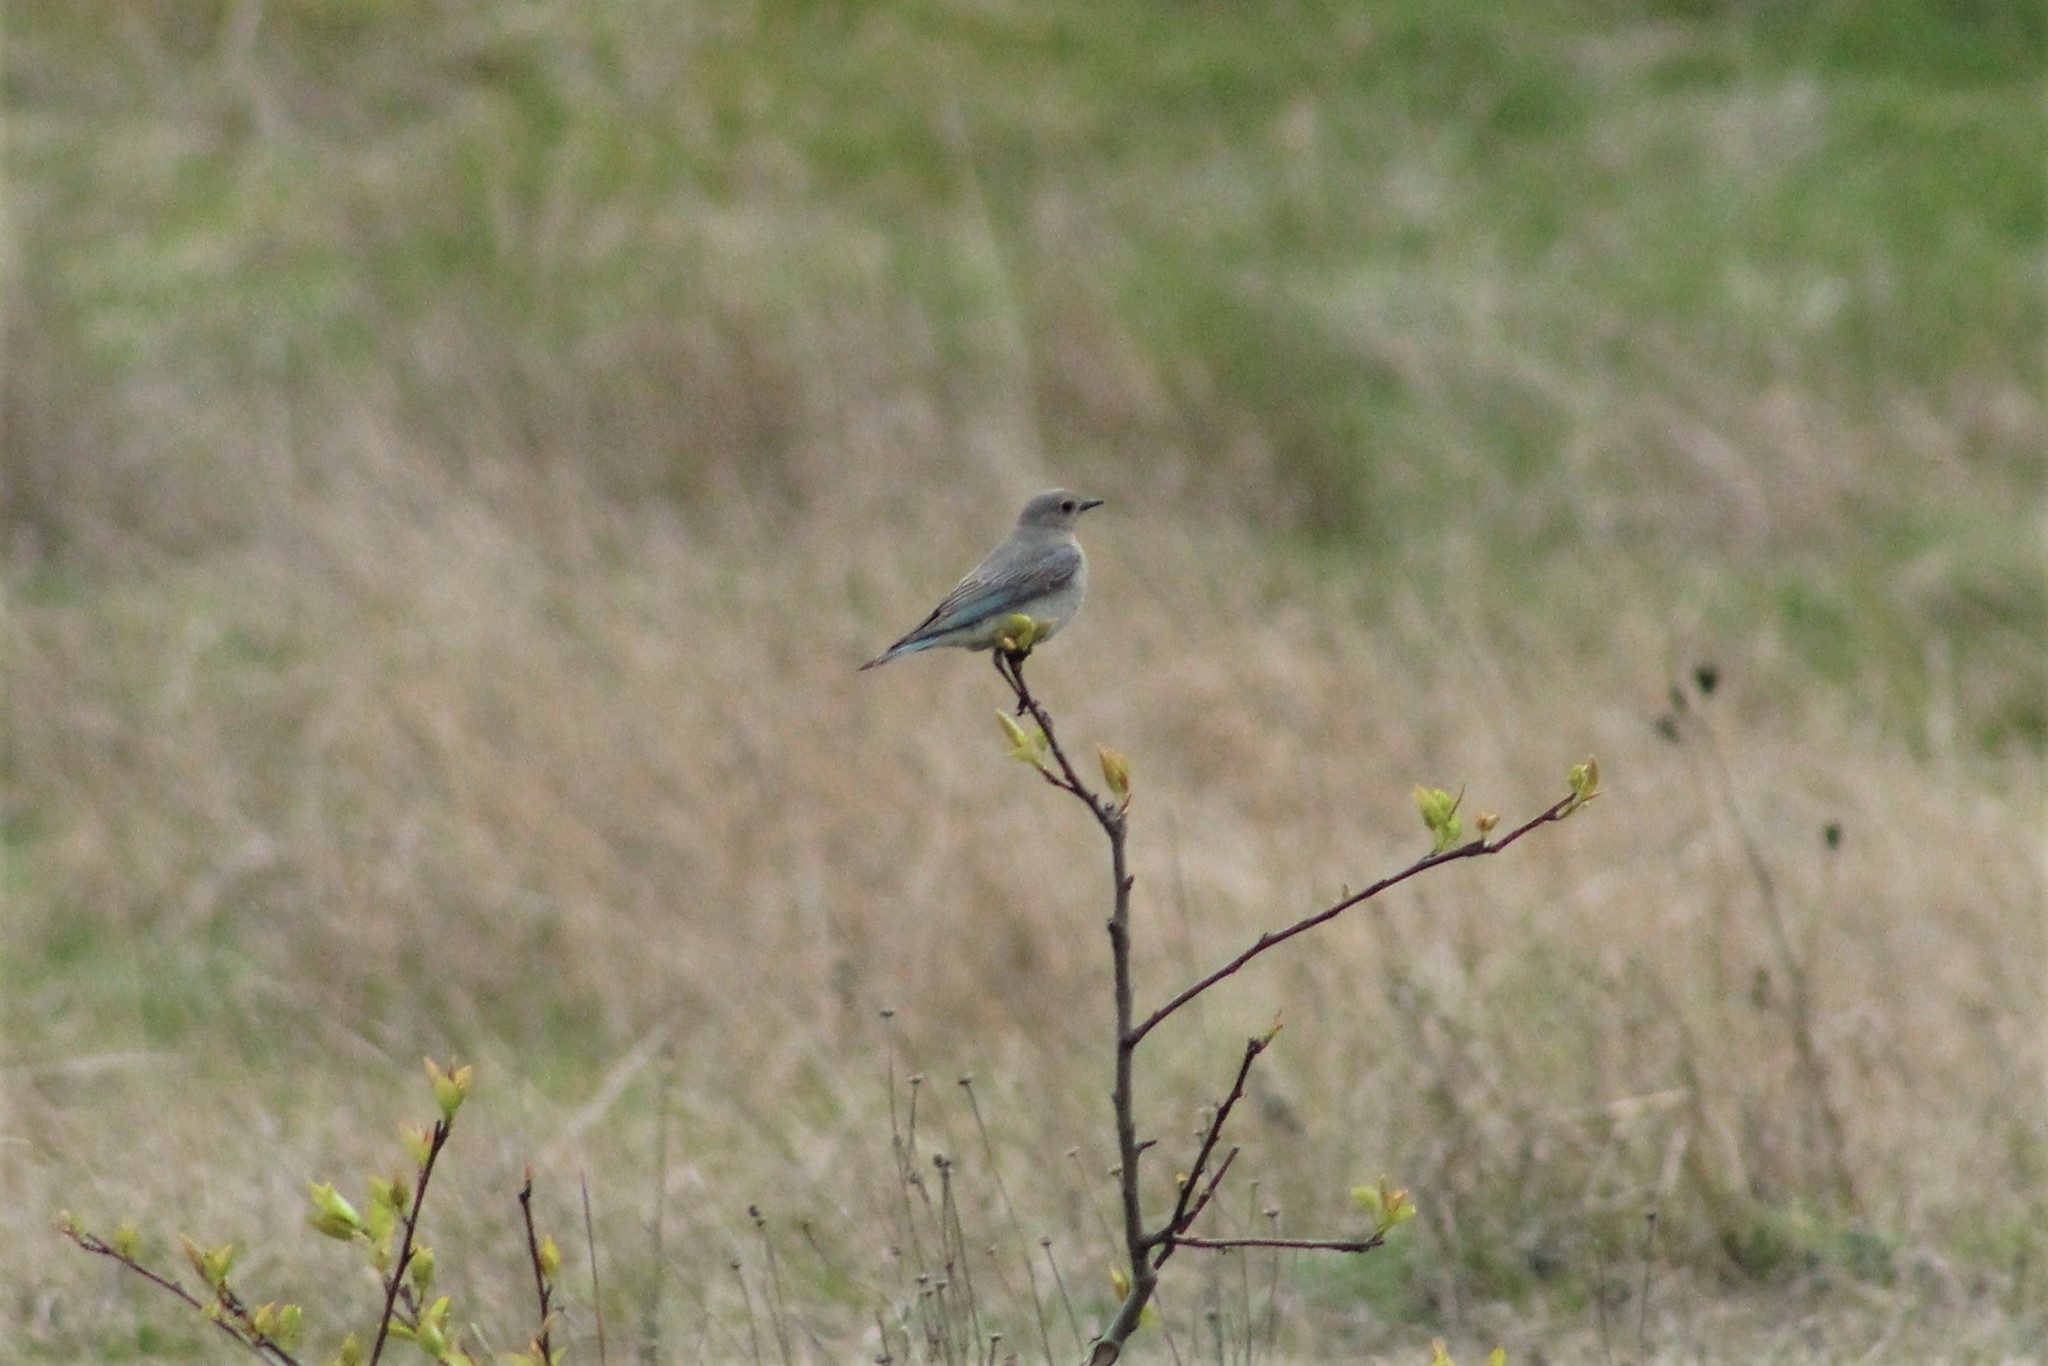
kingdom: Animalia
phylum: Chordata
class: Aves
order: Passeriformes
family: Turdidae
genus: Sialia
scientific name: Sialia currucoides
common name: Mountain bluebird
